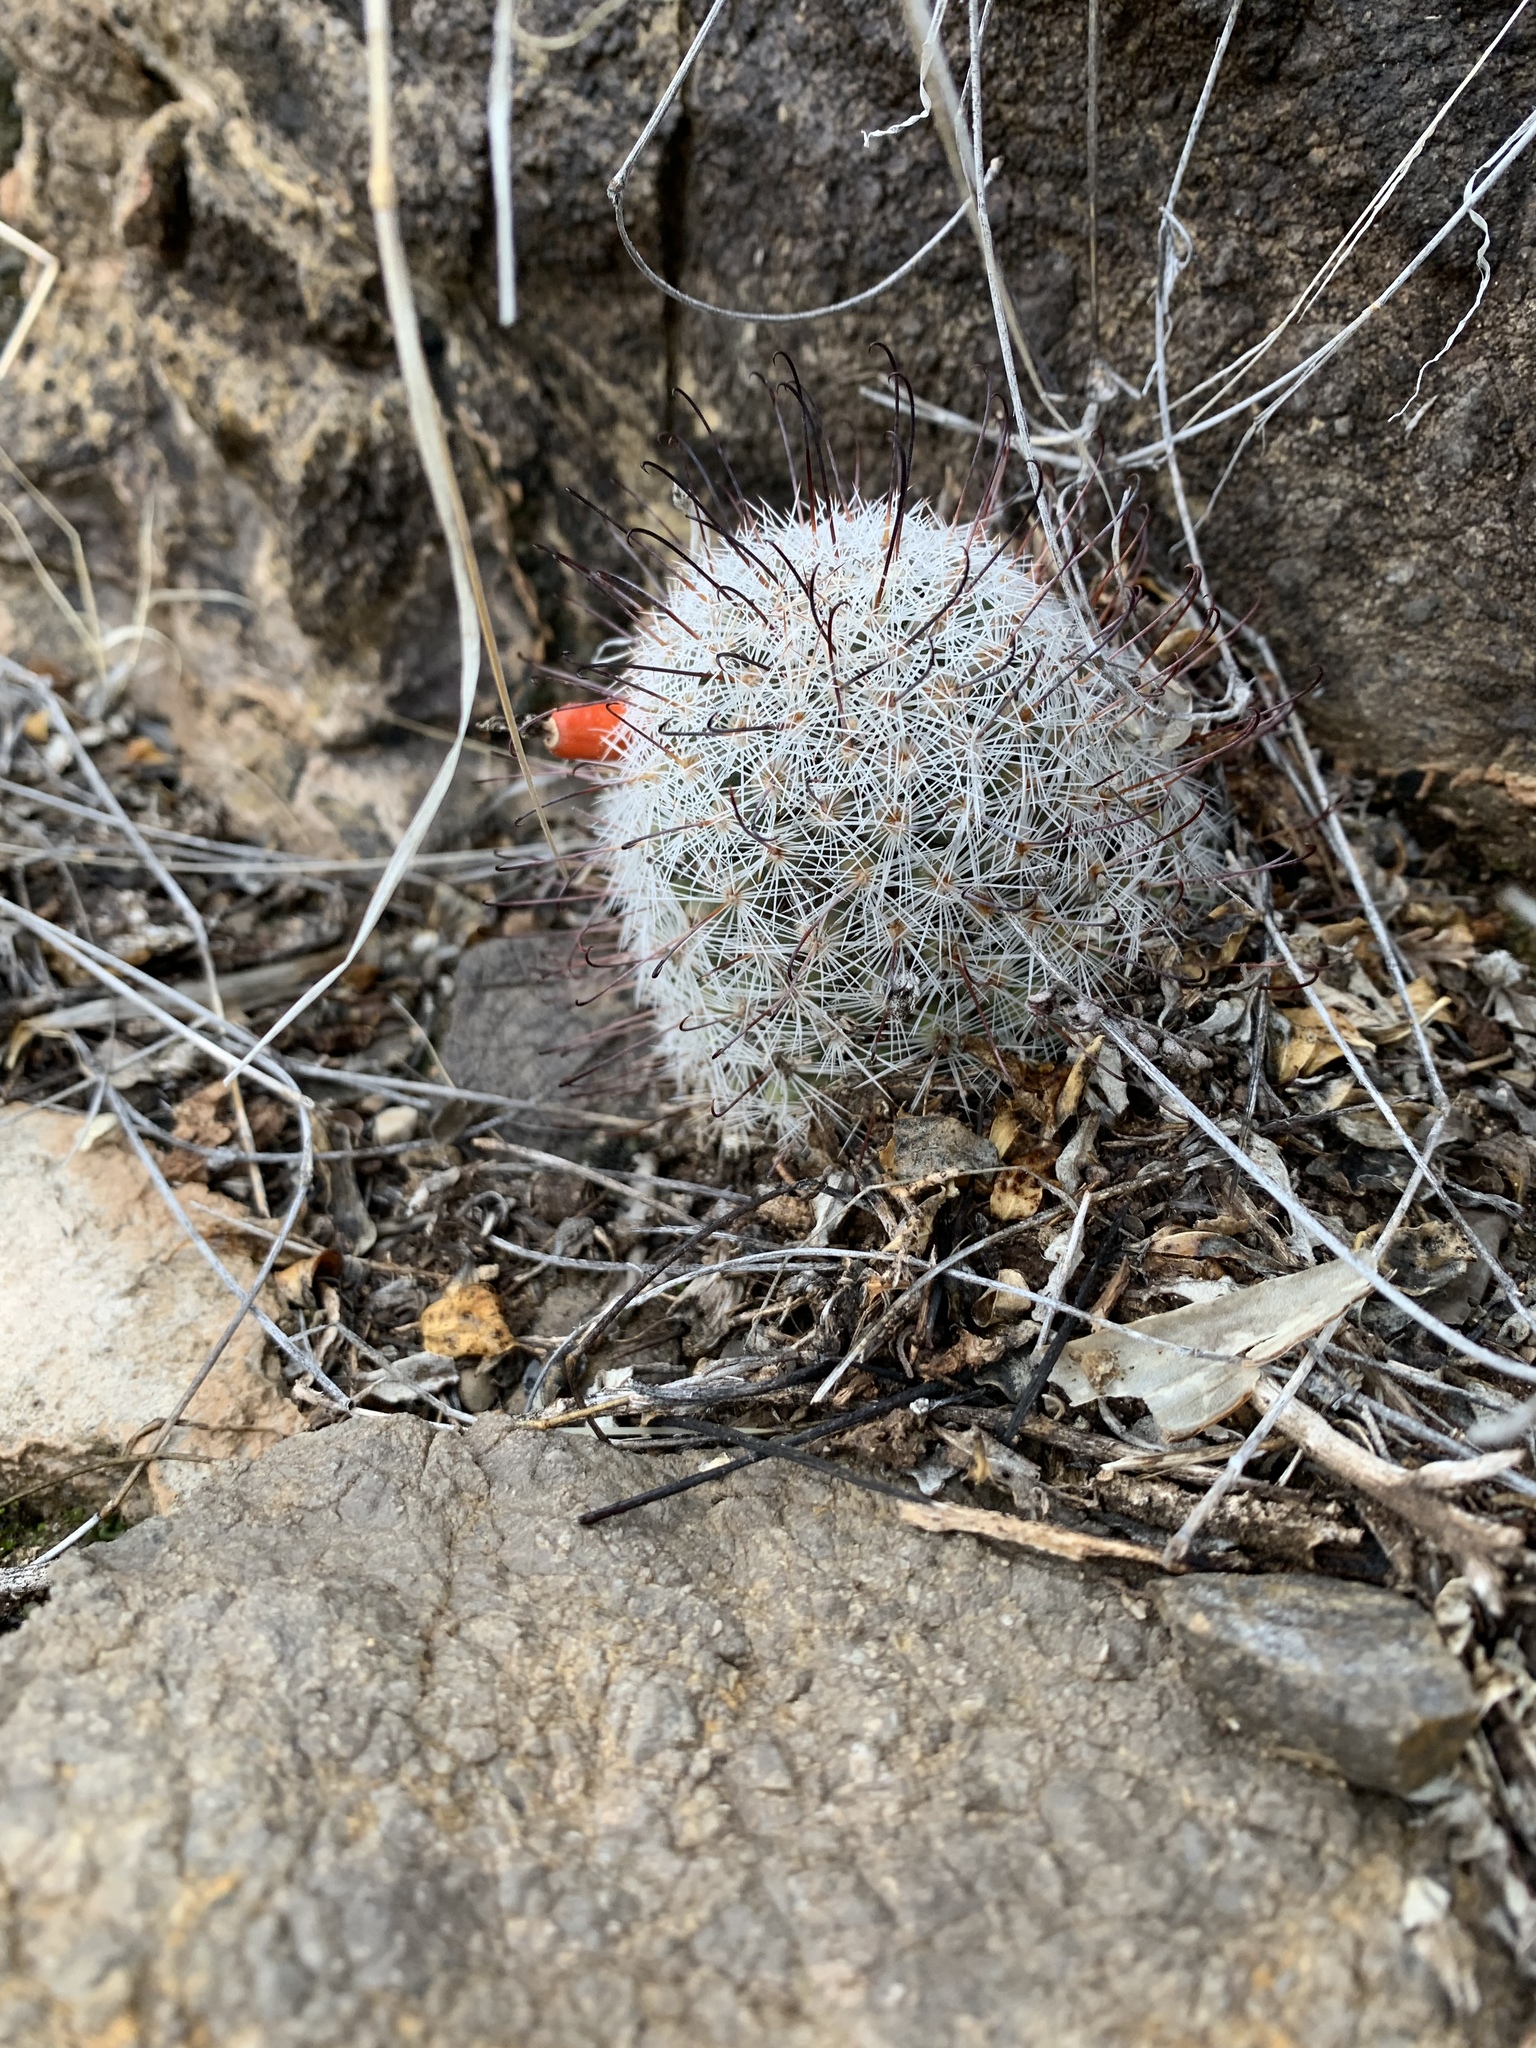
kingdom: Plantae
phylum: Tracheophyta
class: Magnoliopsida
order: Caryophyllales
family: Cactaceae
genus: Cochemiea
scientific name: Cochemiea grahamii
